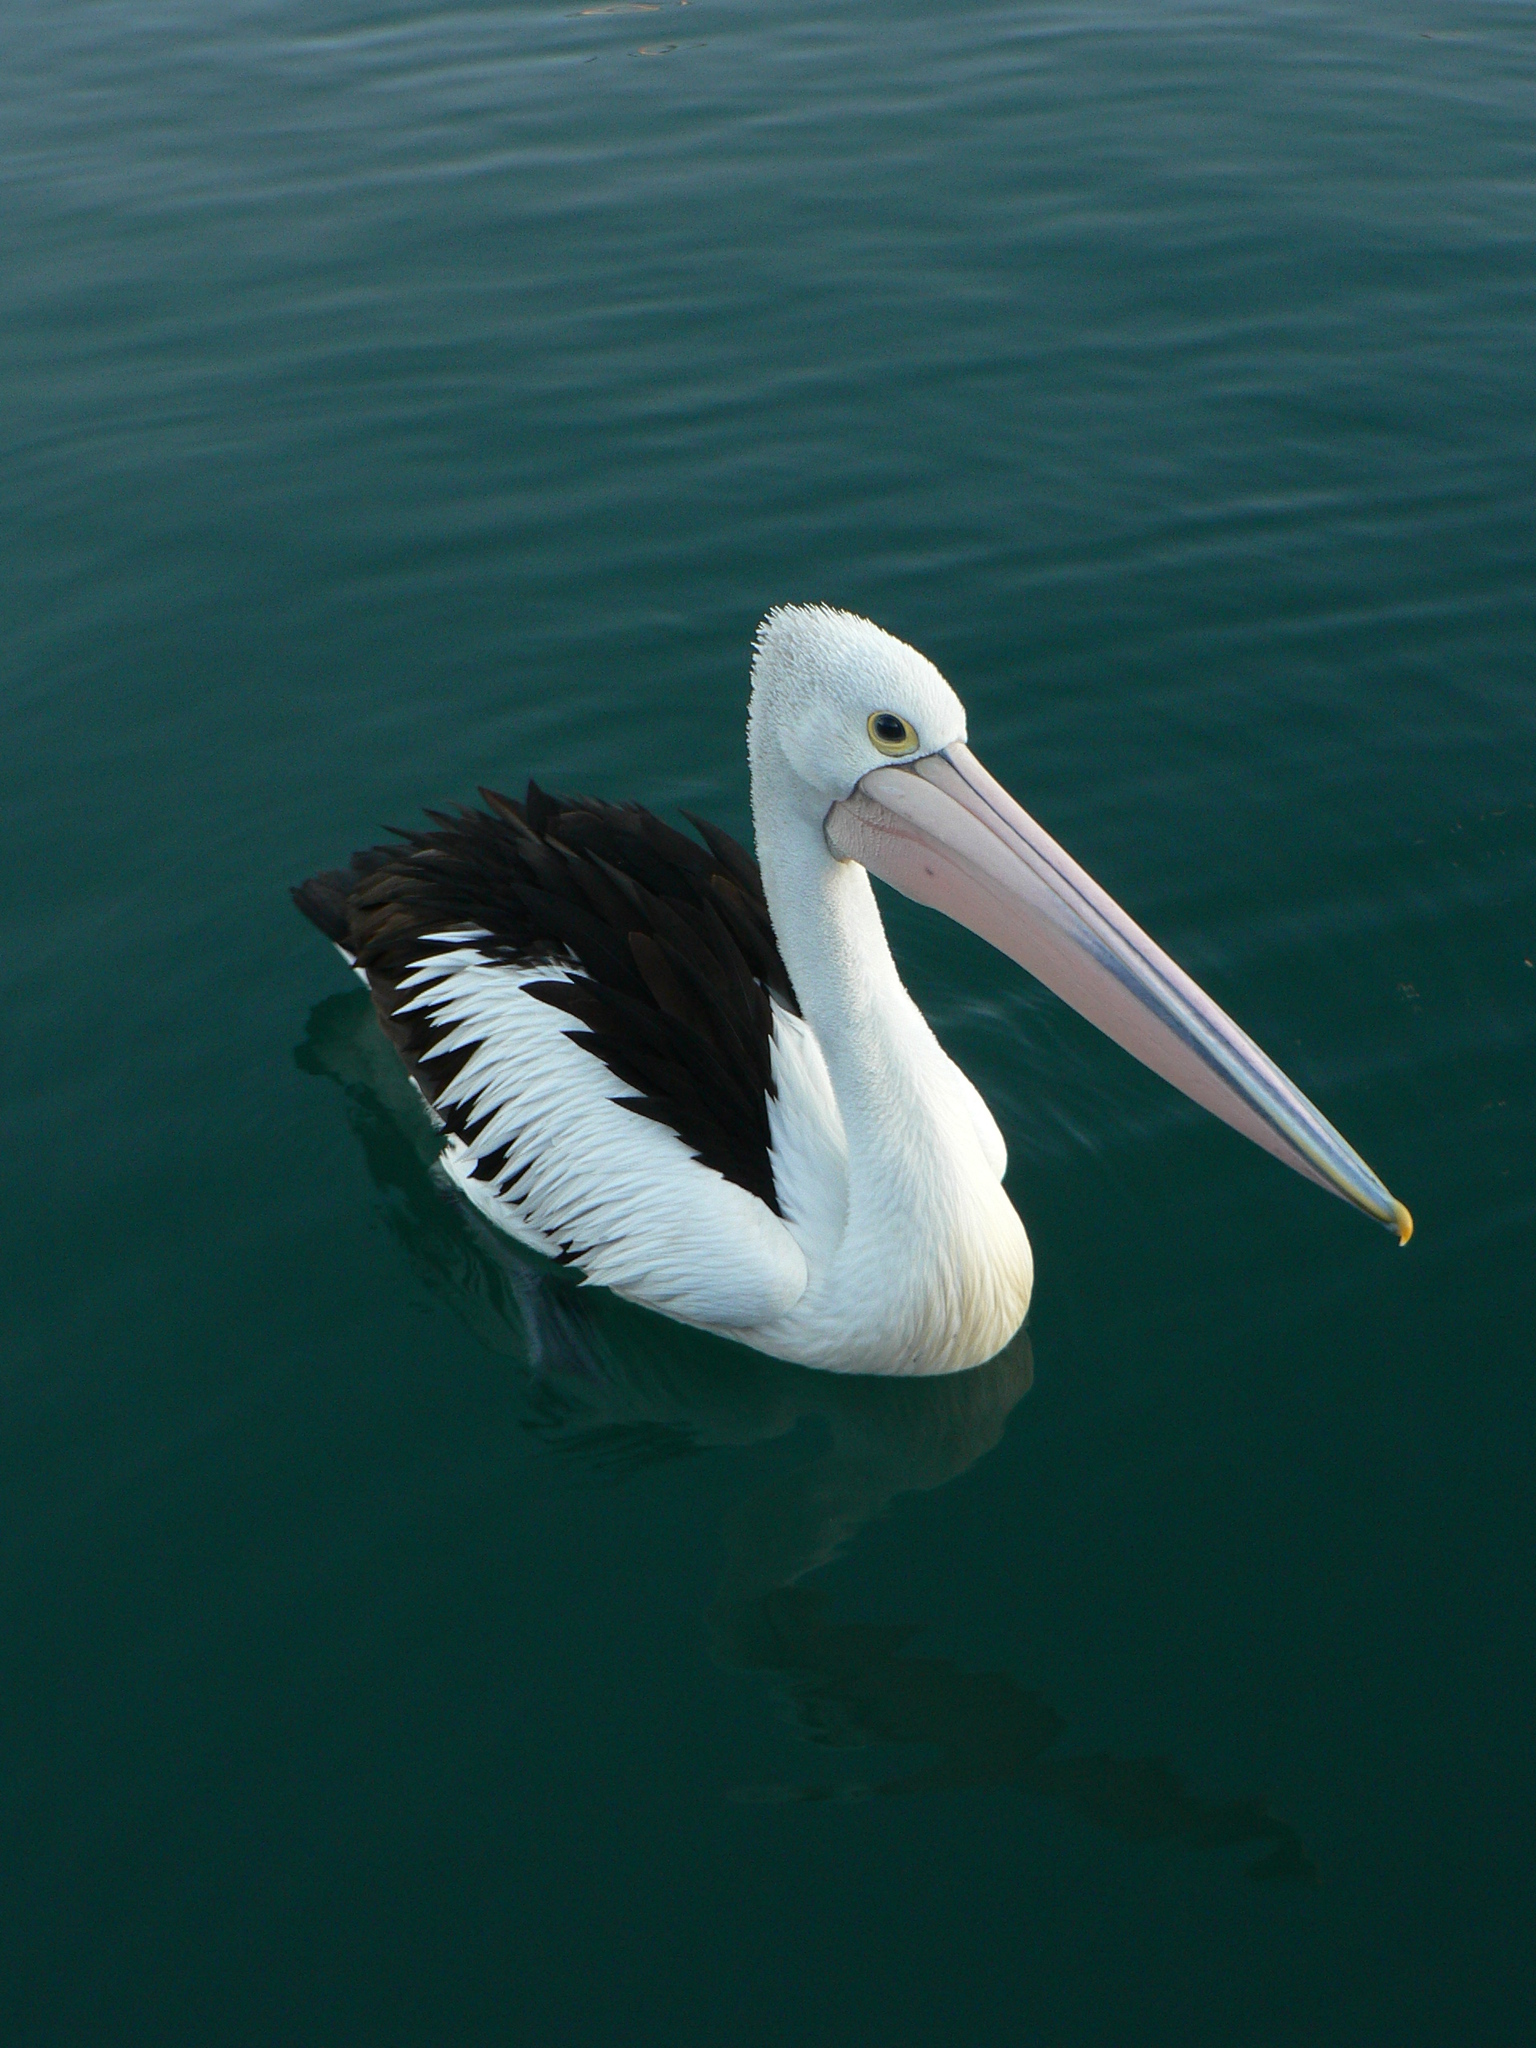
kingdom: Animalia
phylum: Chordata
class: Aves
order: Pelecaniformes
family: Pelecanidae
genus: Pelecanus
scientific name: Pelecanus conspicillatus
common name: Australian pelican
